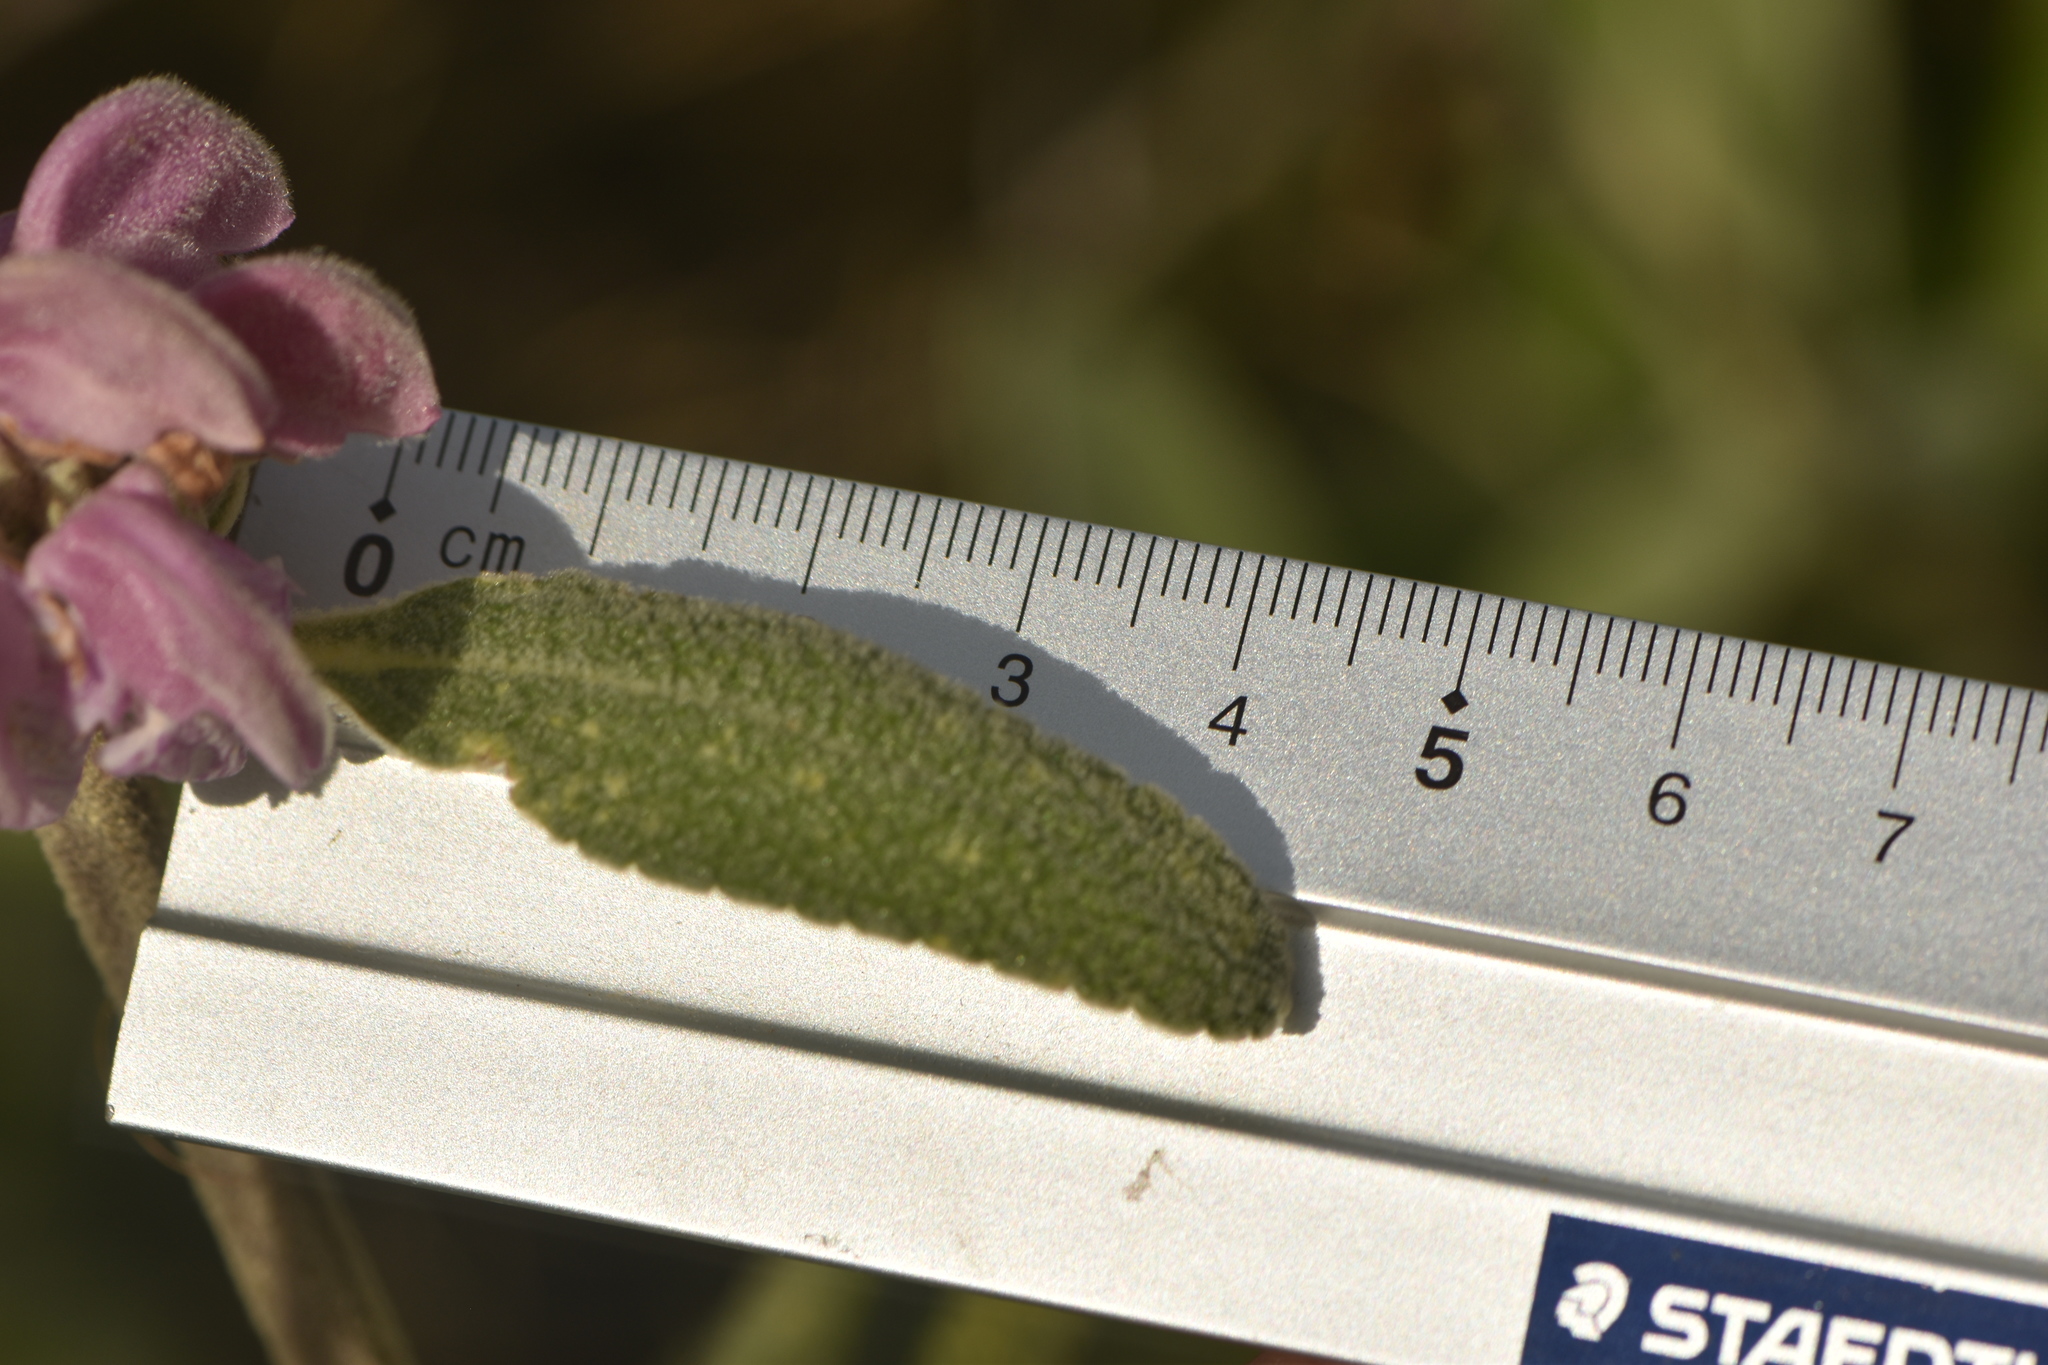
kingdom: Plantae
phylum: Tracheophyta
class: Magnoliopsida
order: Lamiales
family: Lamiaceae
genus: Phlomis
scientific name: Phlomis purpurea
